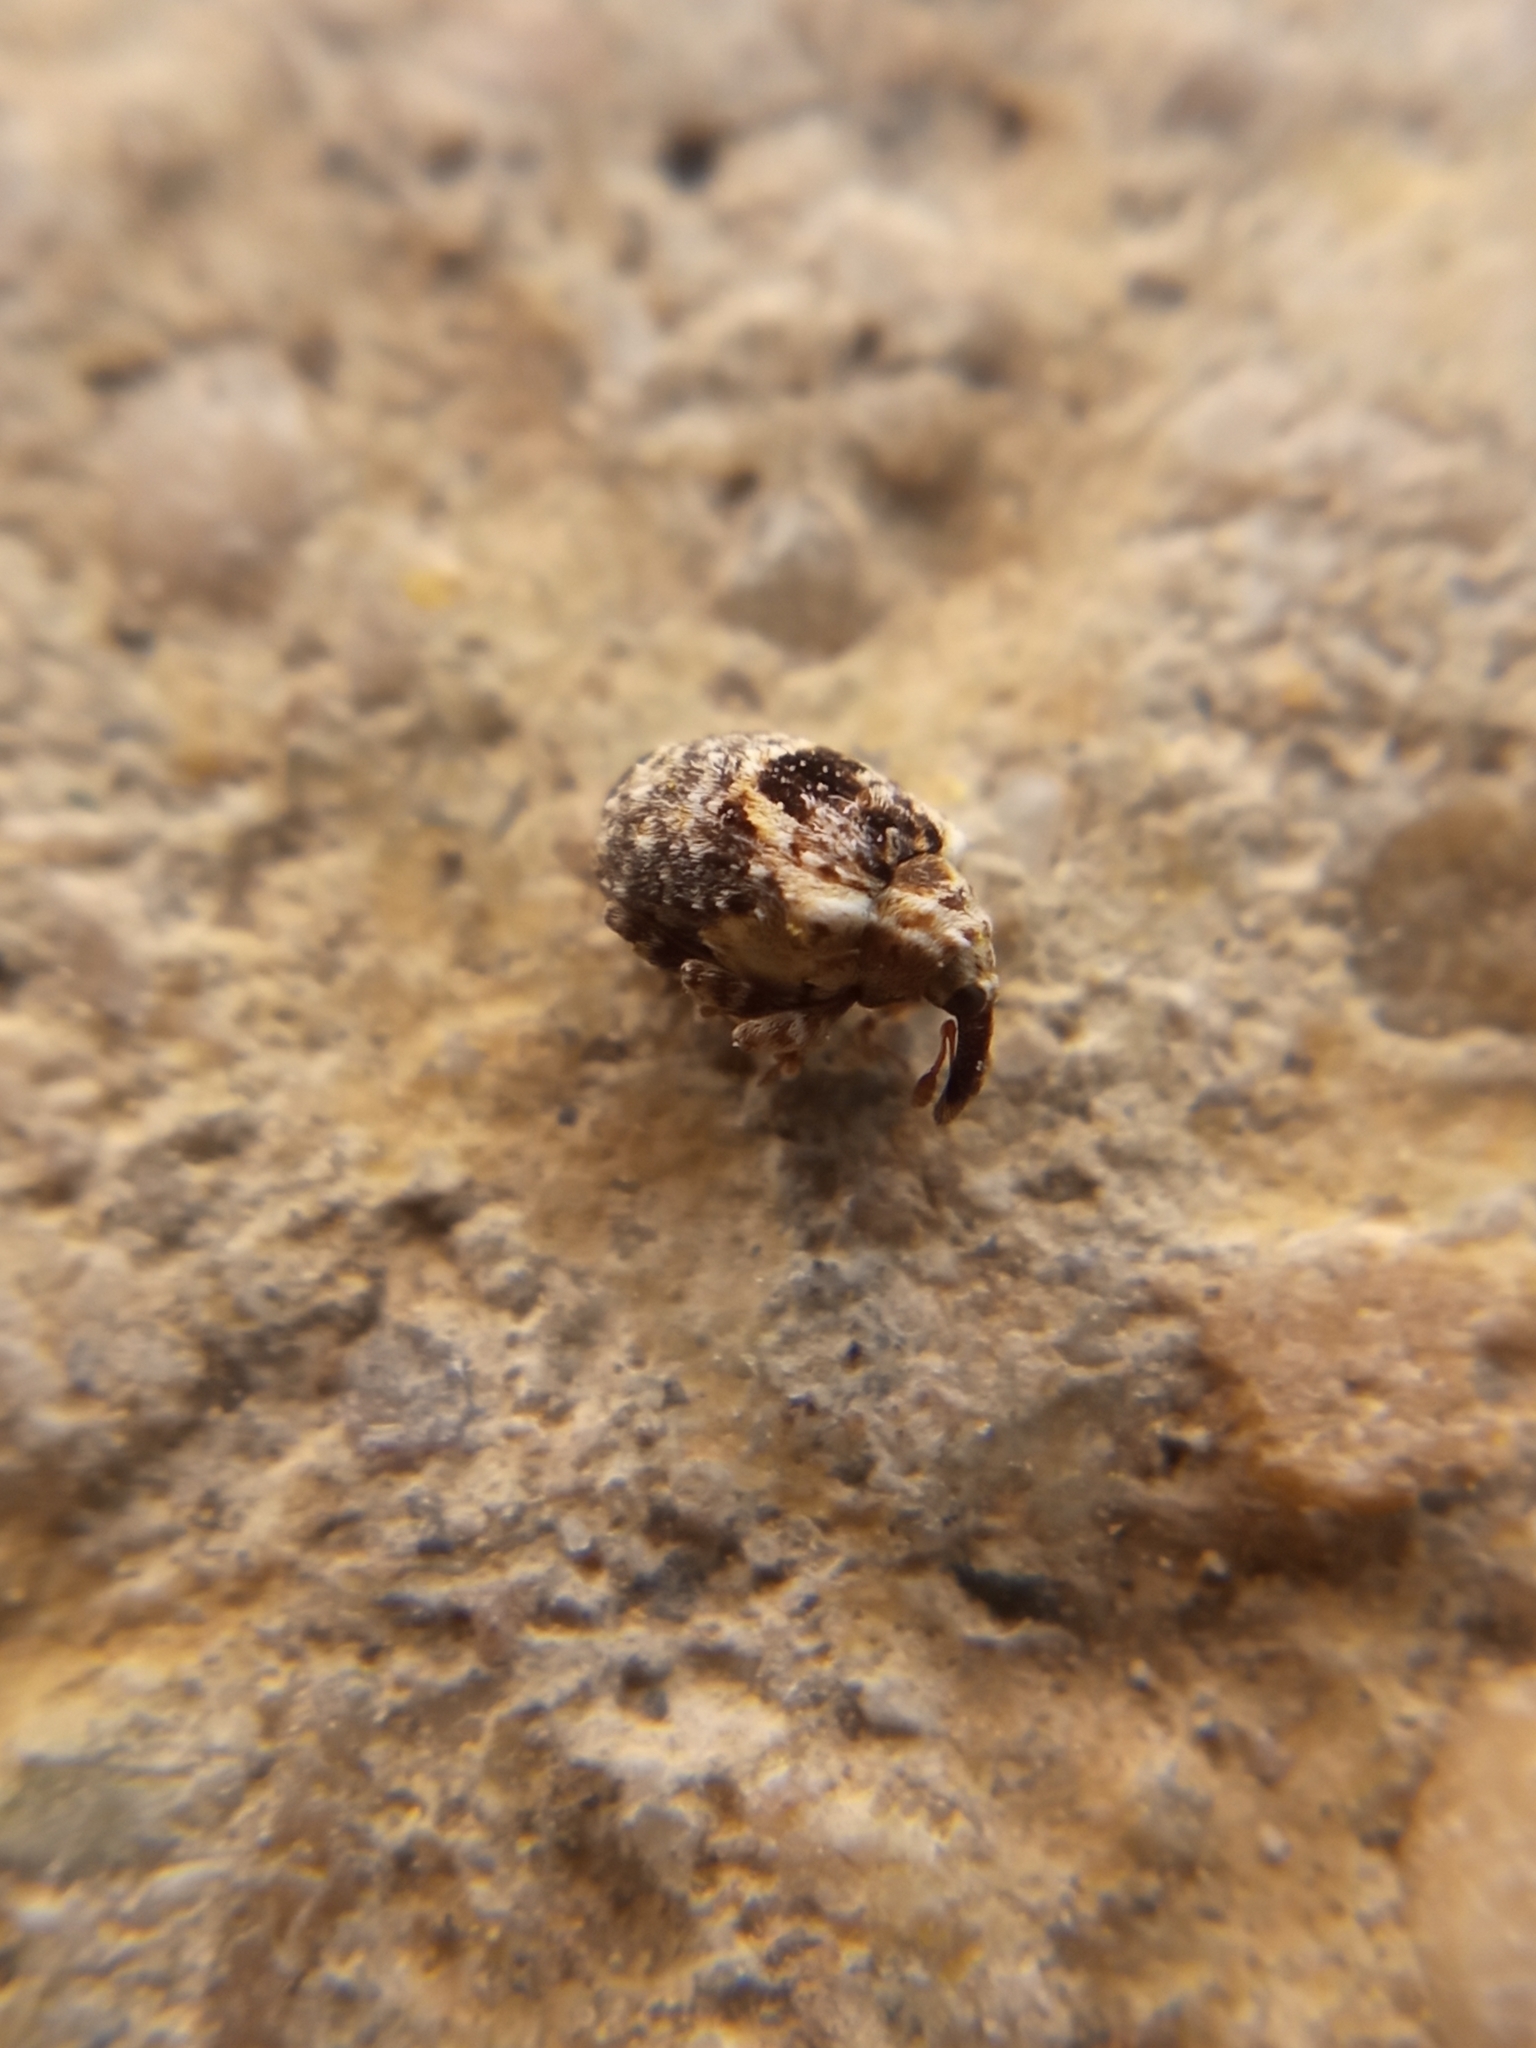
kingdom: Animalia
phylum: Arthropoda
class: Insecta
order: Coleoptera
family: Curculionidae
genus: Cionus
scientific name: Cionus alauda
